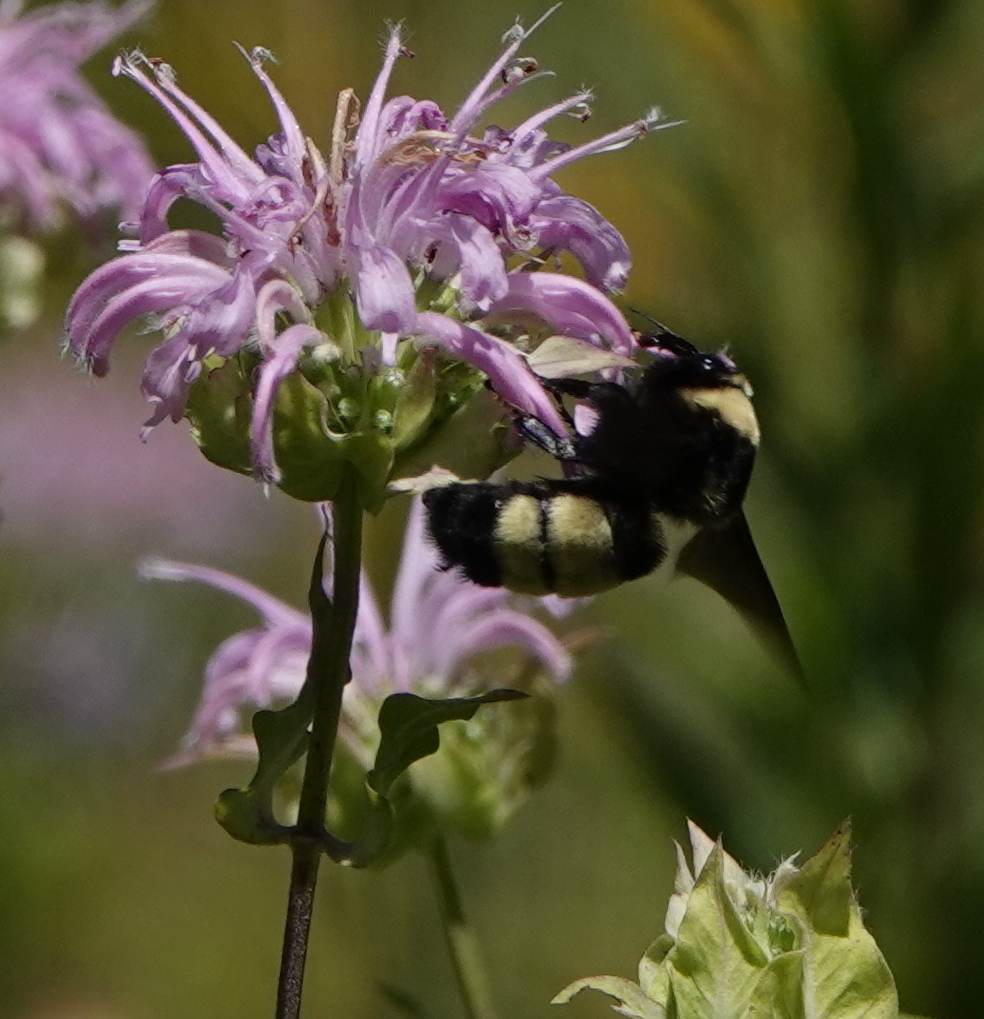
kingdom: Animalia
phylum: Arthropoda
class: Insecta
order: Hymenoptera
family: Apidae
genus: Bombus
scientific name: Bombus auricomus
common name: Black and gold bumble bee
